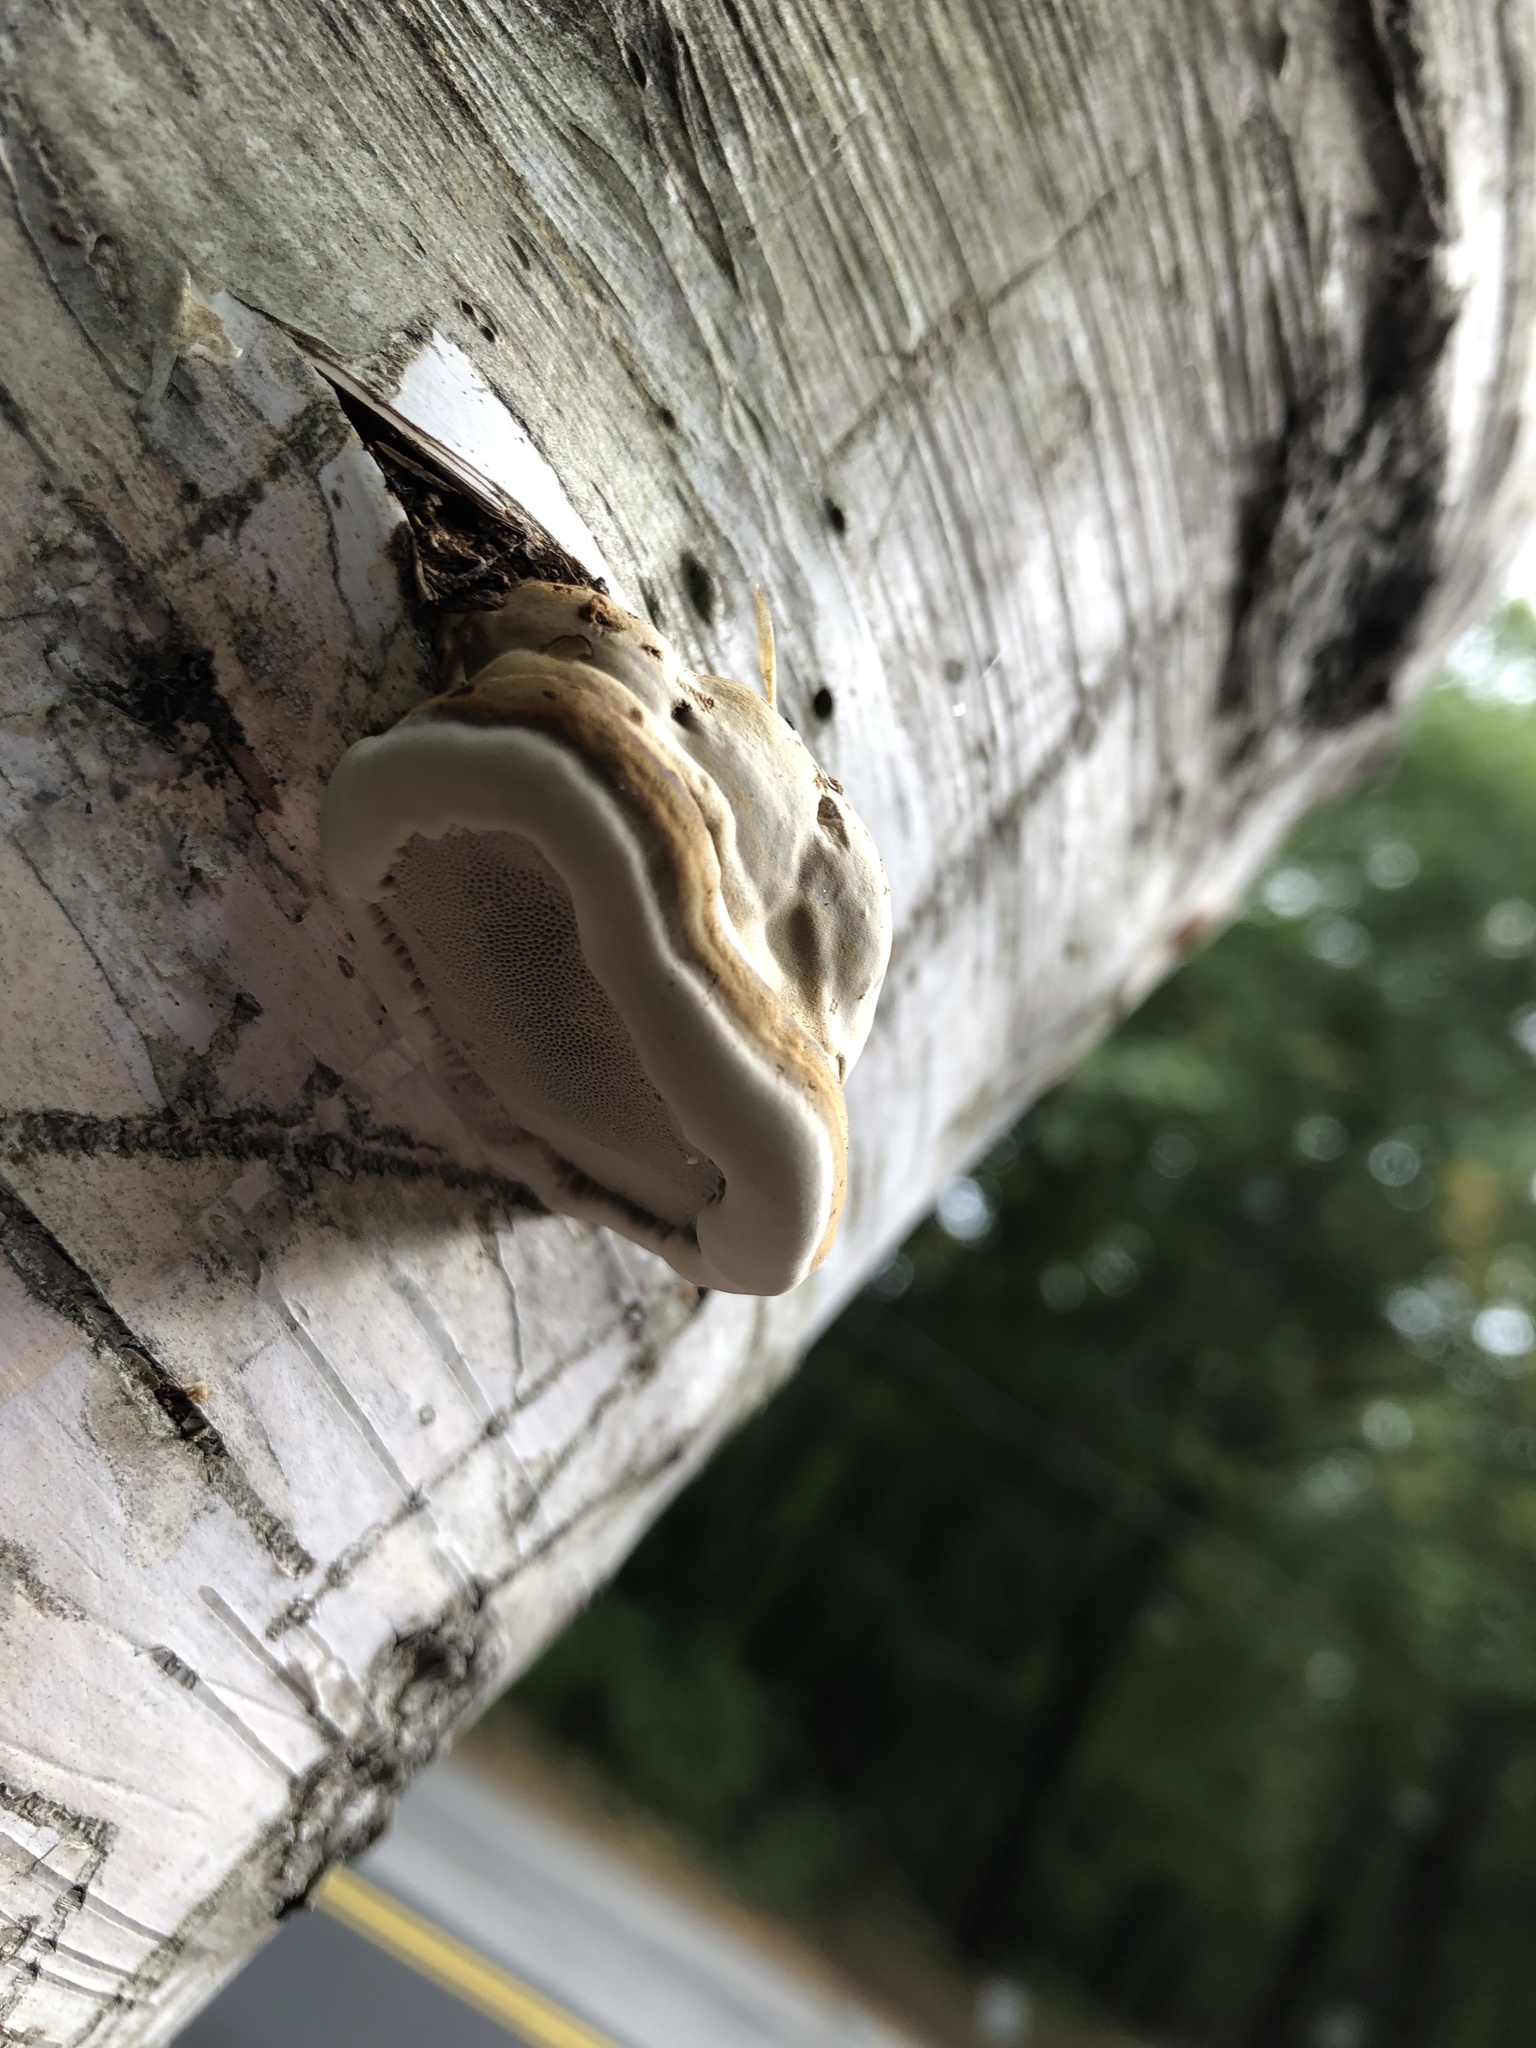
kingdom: Fungi
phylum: Basidiomycota
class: Agaricomycetes
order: Polyporales
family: Polyporaceae
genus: Fomes
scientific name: Fomes fomentarius
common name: Hoof fungus
